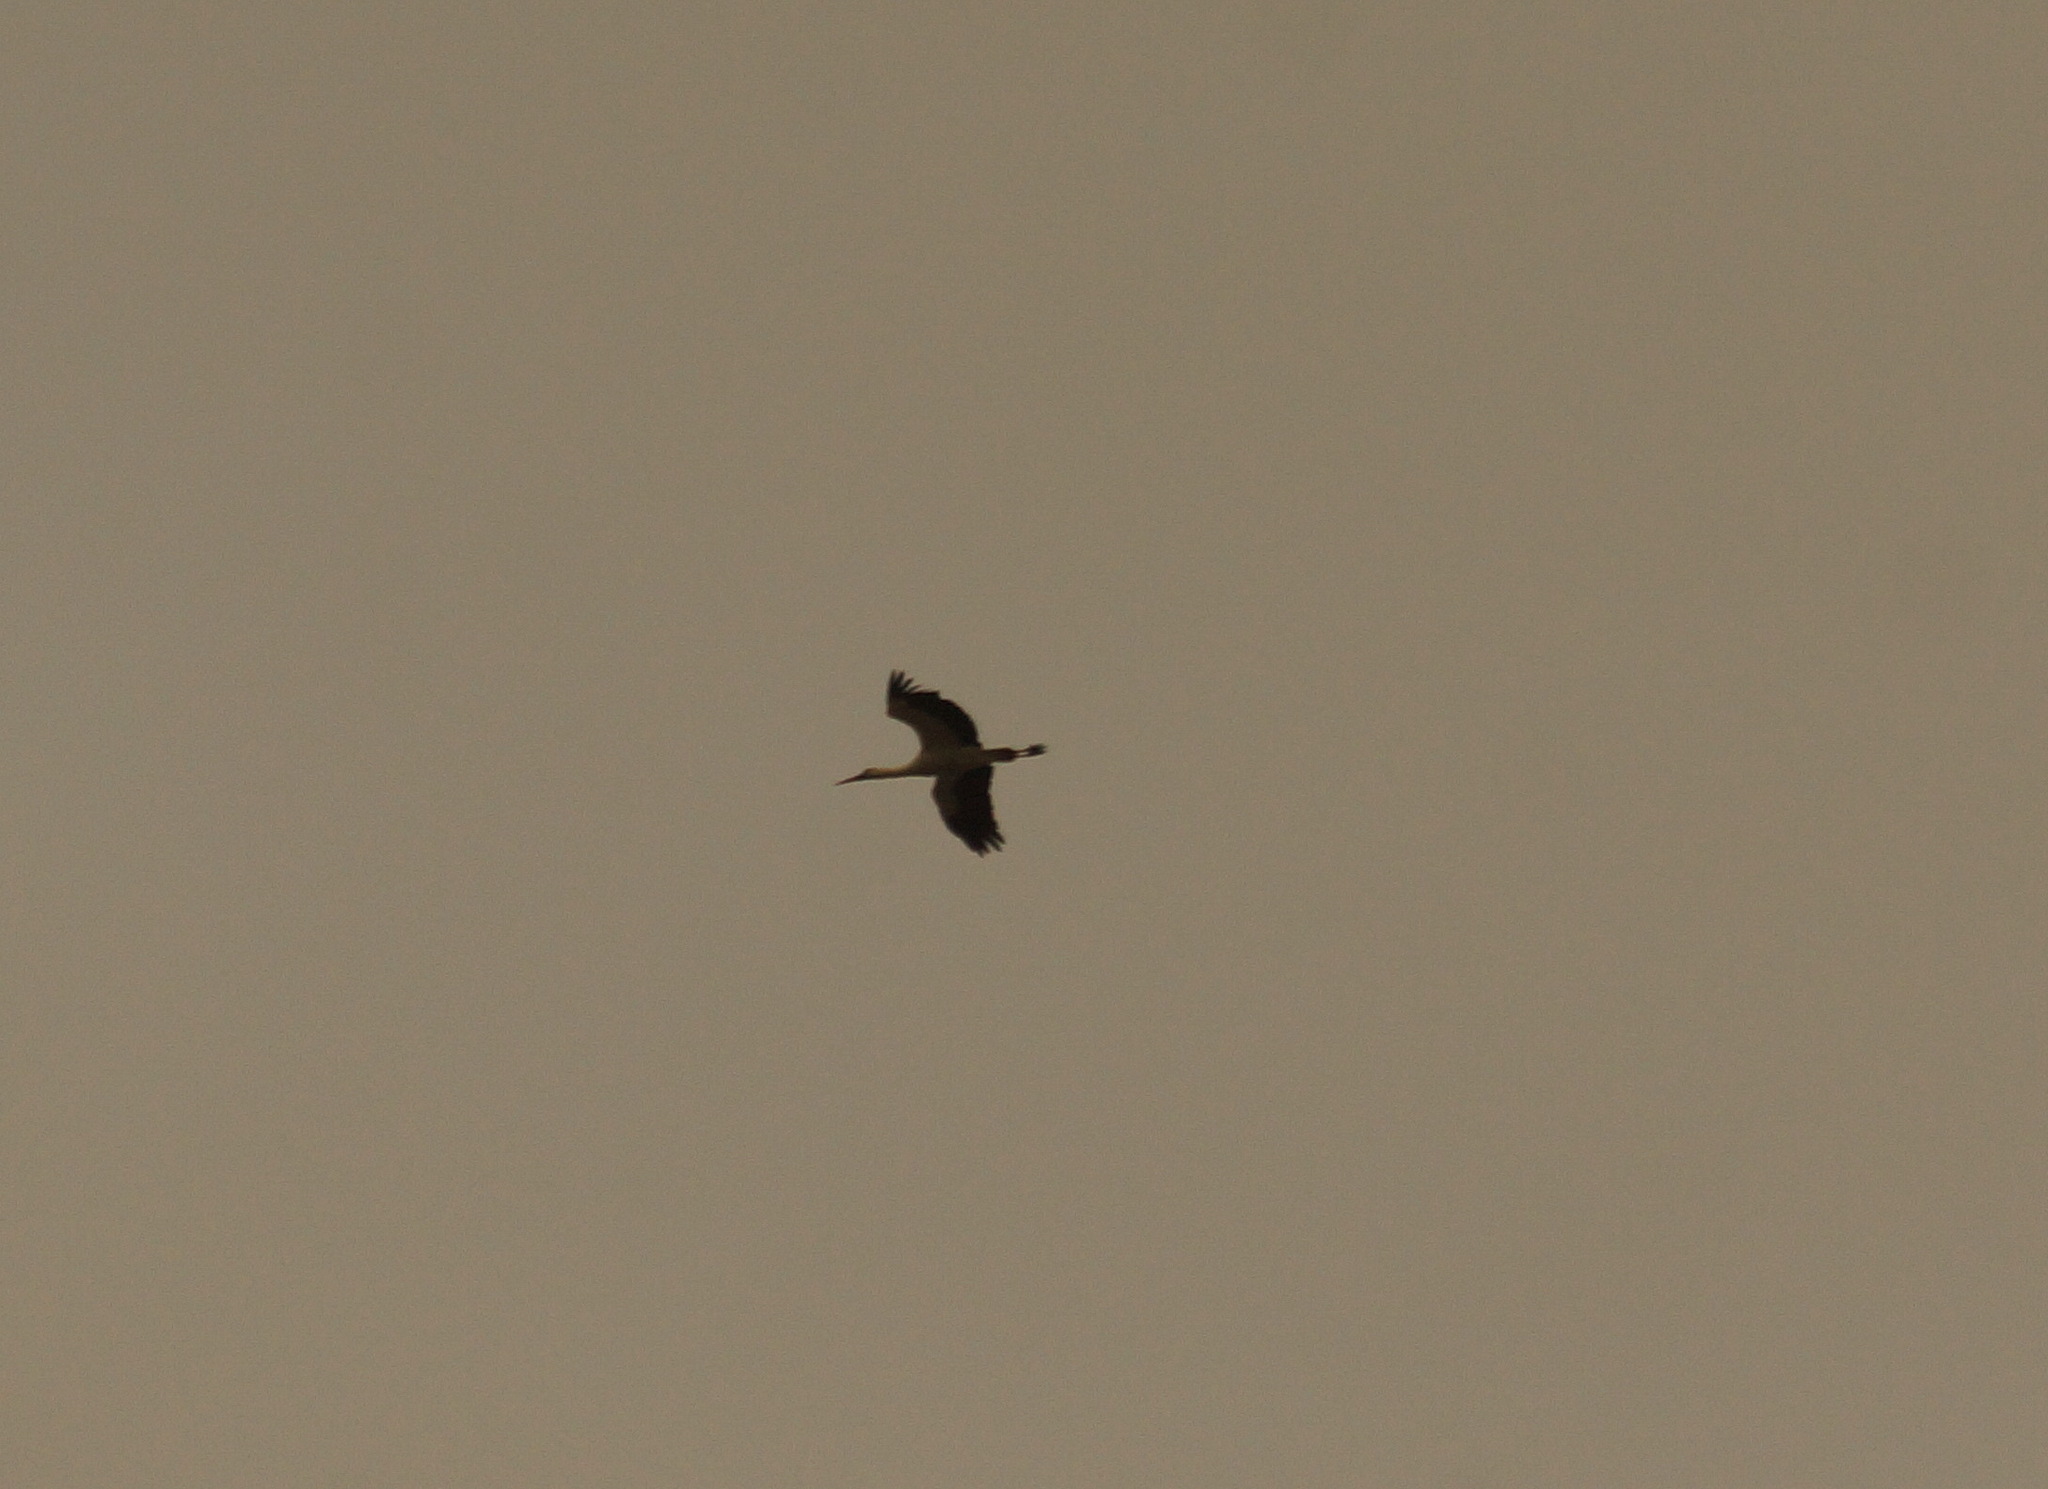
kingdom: Animalia
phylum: Chordata
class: Aves
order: Ciconiiformes
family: Ciconiidae
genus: Ciconia
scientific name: Ciconia ciconia
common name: White stork
